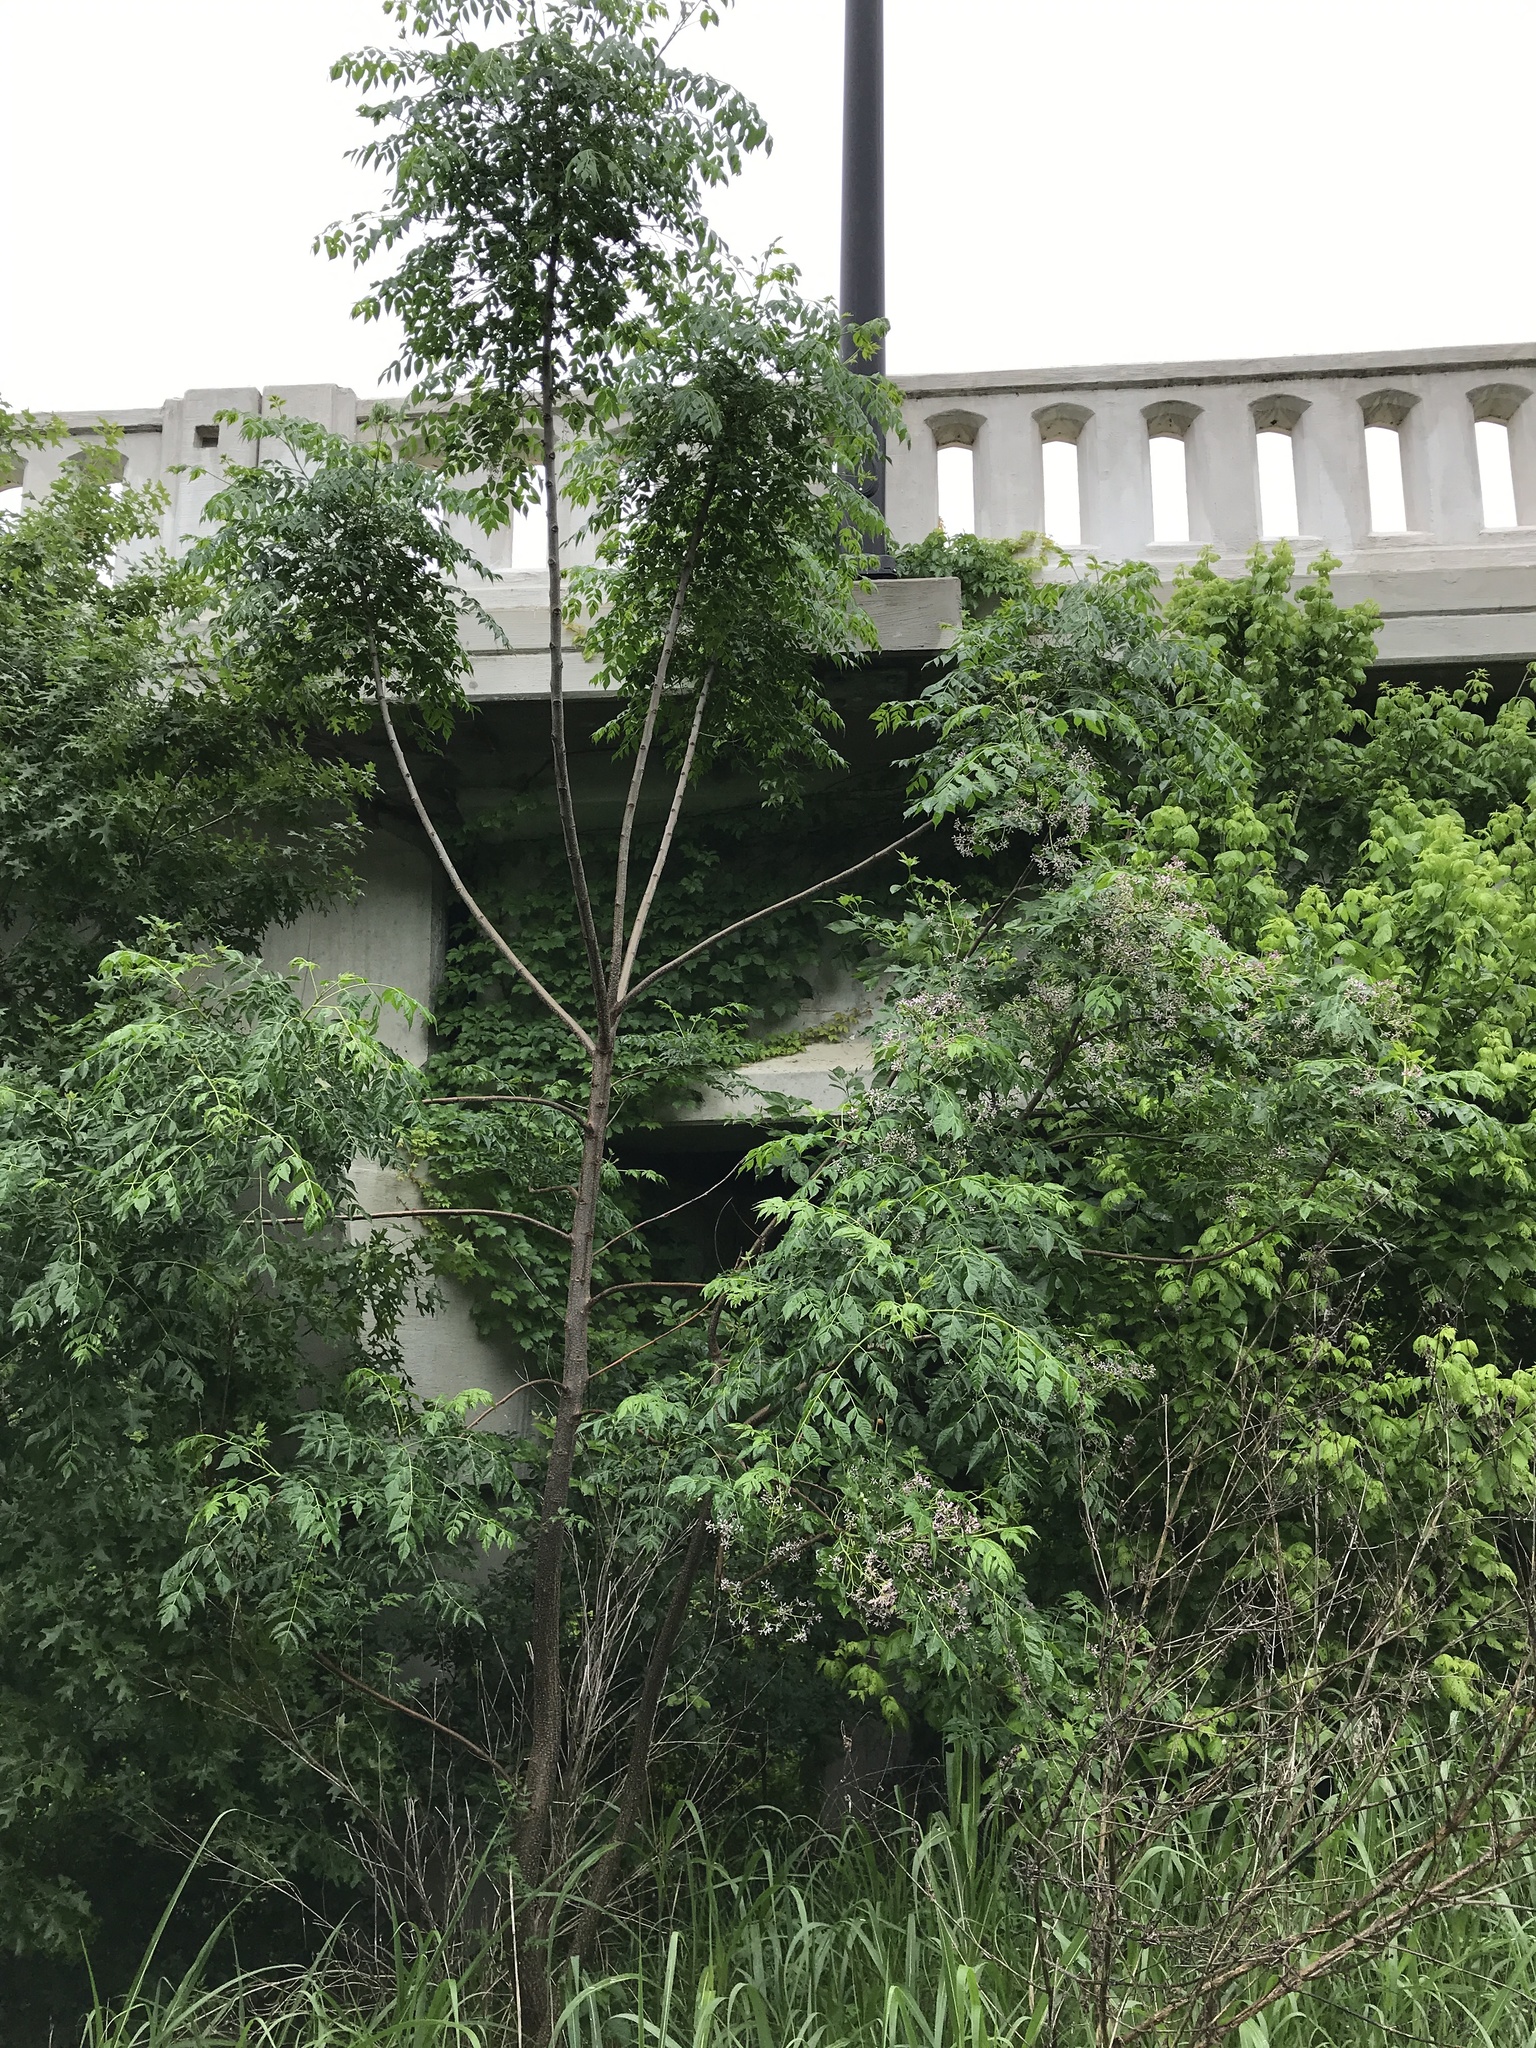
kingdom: Plantae
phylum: Tracheophyta
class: Magnoliopsida
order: Sapindales
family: Meliaceae
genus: Melia
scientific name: Melia azedarach
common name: Chinaberrytree
